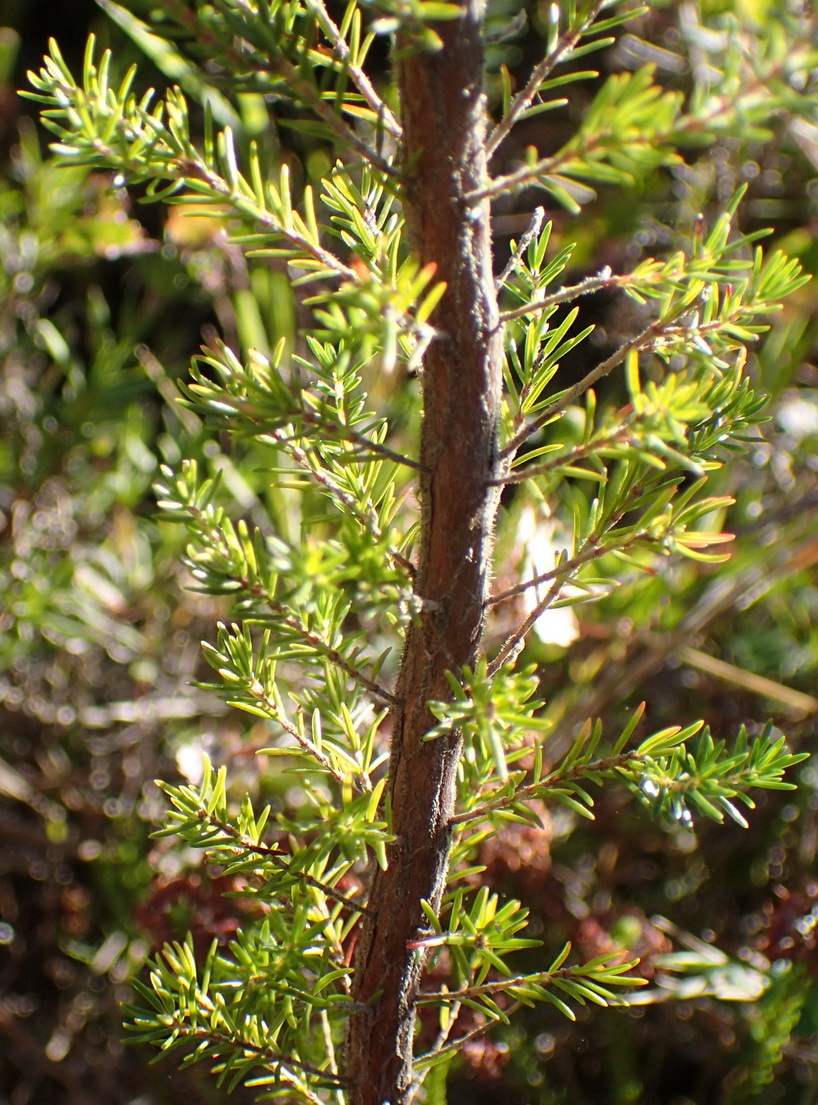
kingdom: Plantae
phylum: Tracheophyta
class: Magnoliopsida
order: Ericales
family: Ericaceae
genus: Erica
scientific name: Erica curviflora
